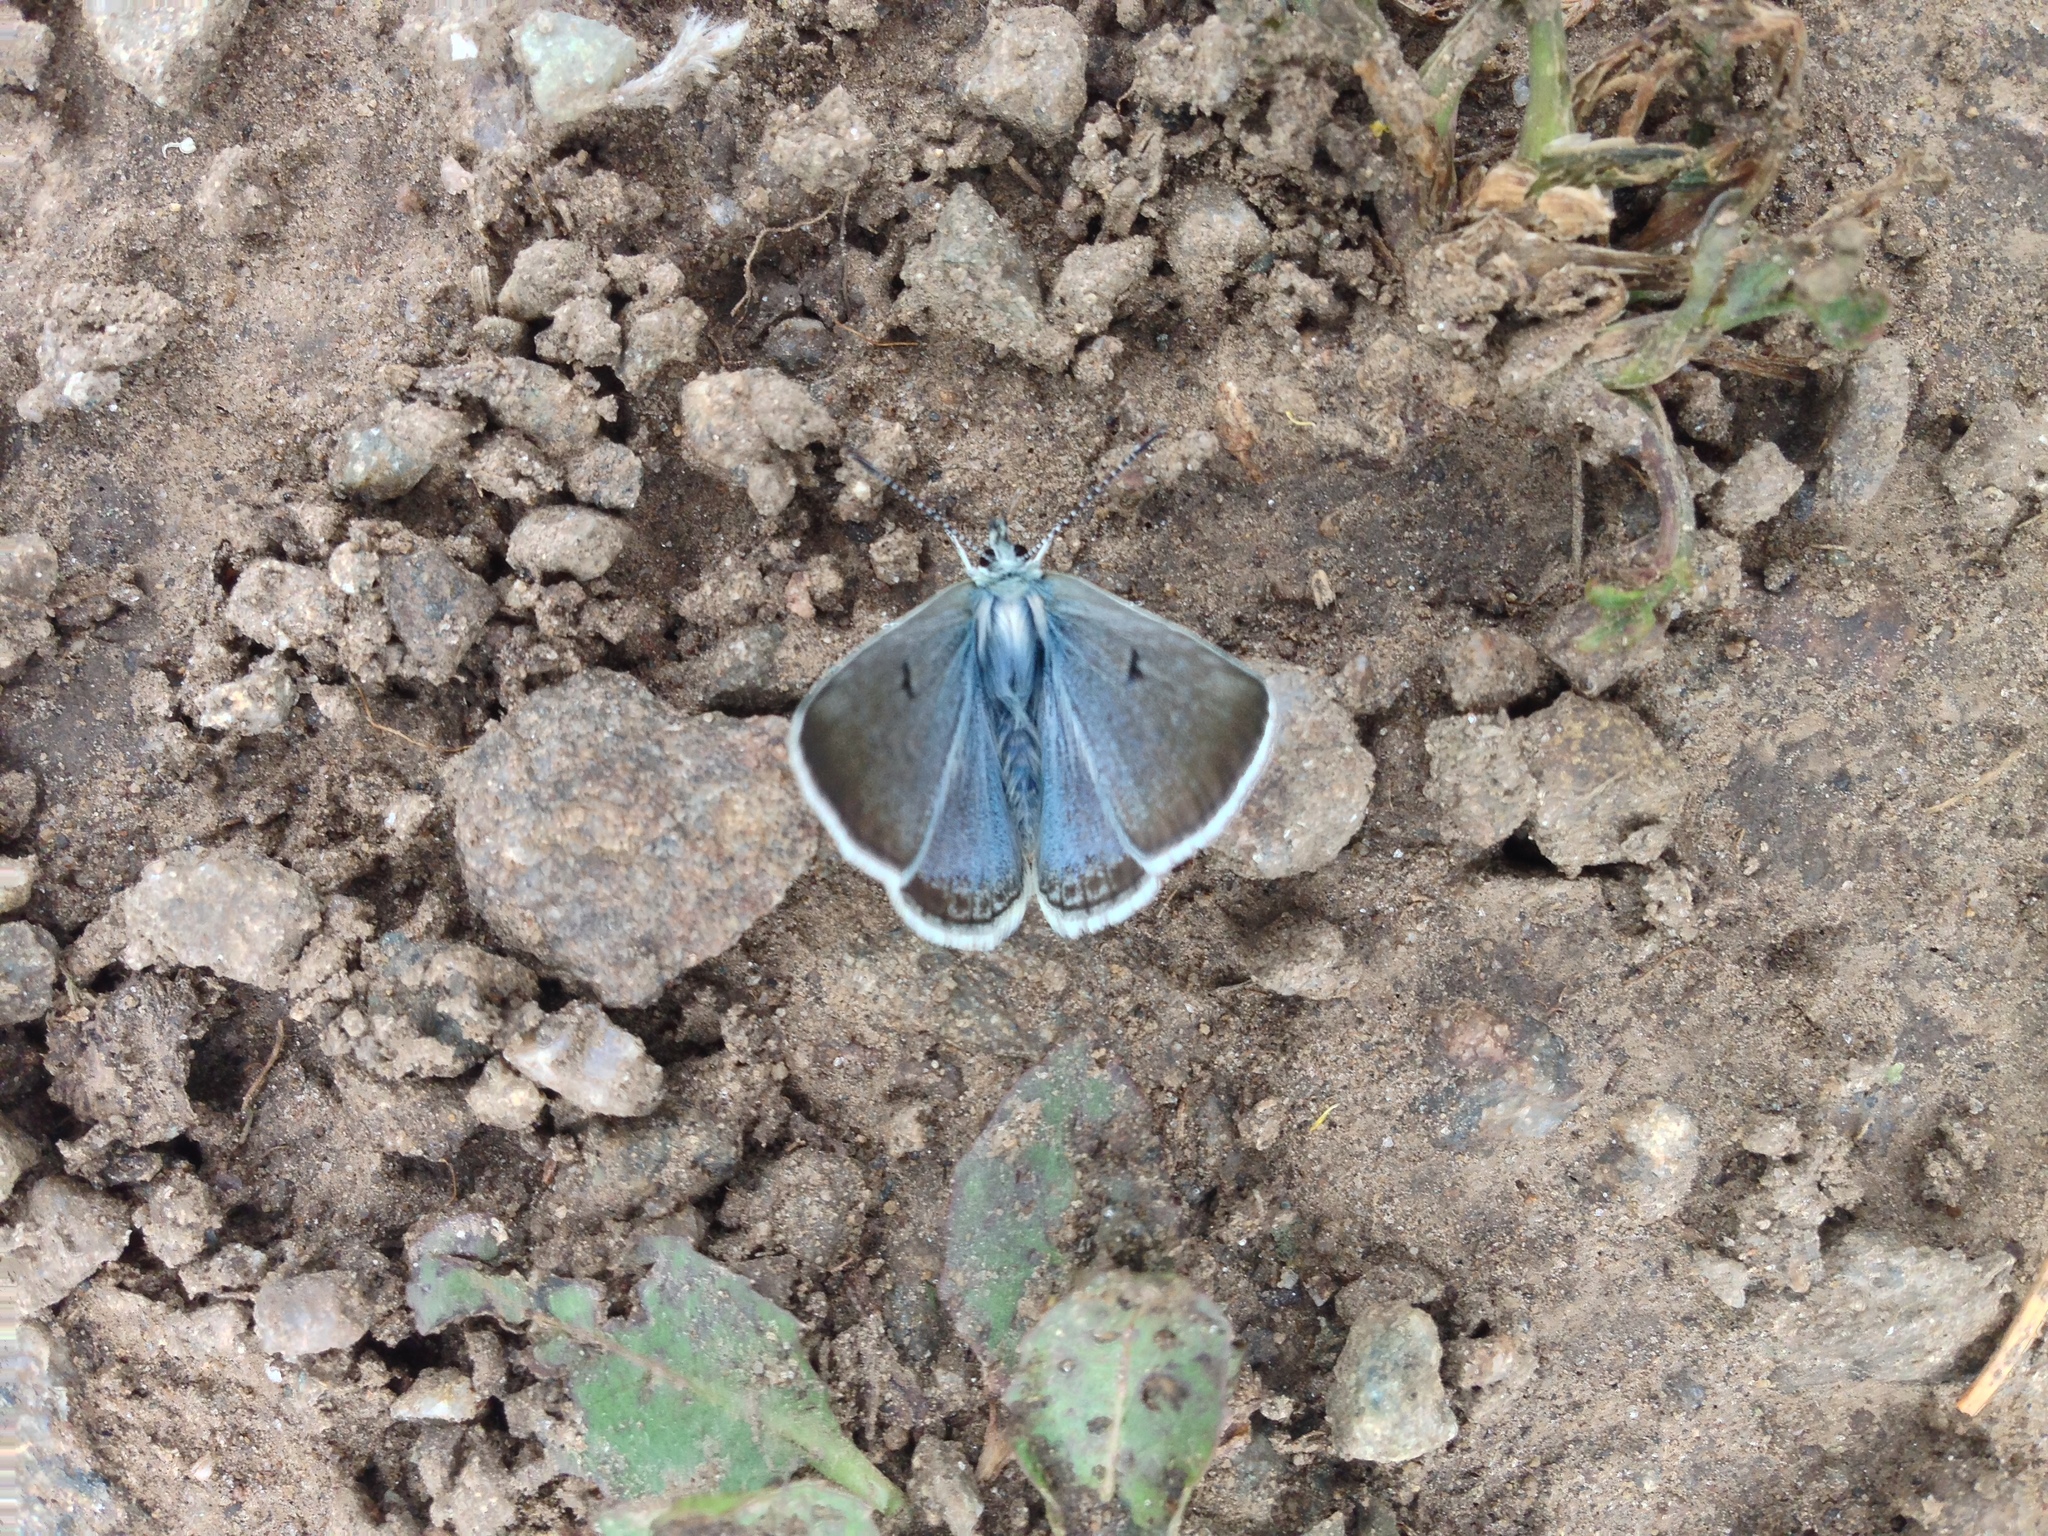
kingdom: Animalia
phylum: Arthropoda
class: Insecta
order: Lepidoptera
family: Lycaenidae
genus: Agriades
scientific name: Agriades glandon
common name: Glandon blue
